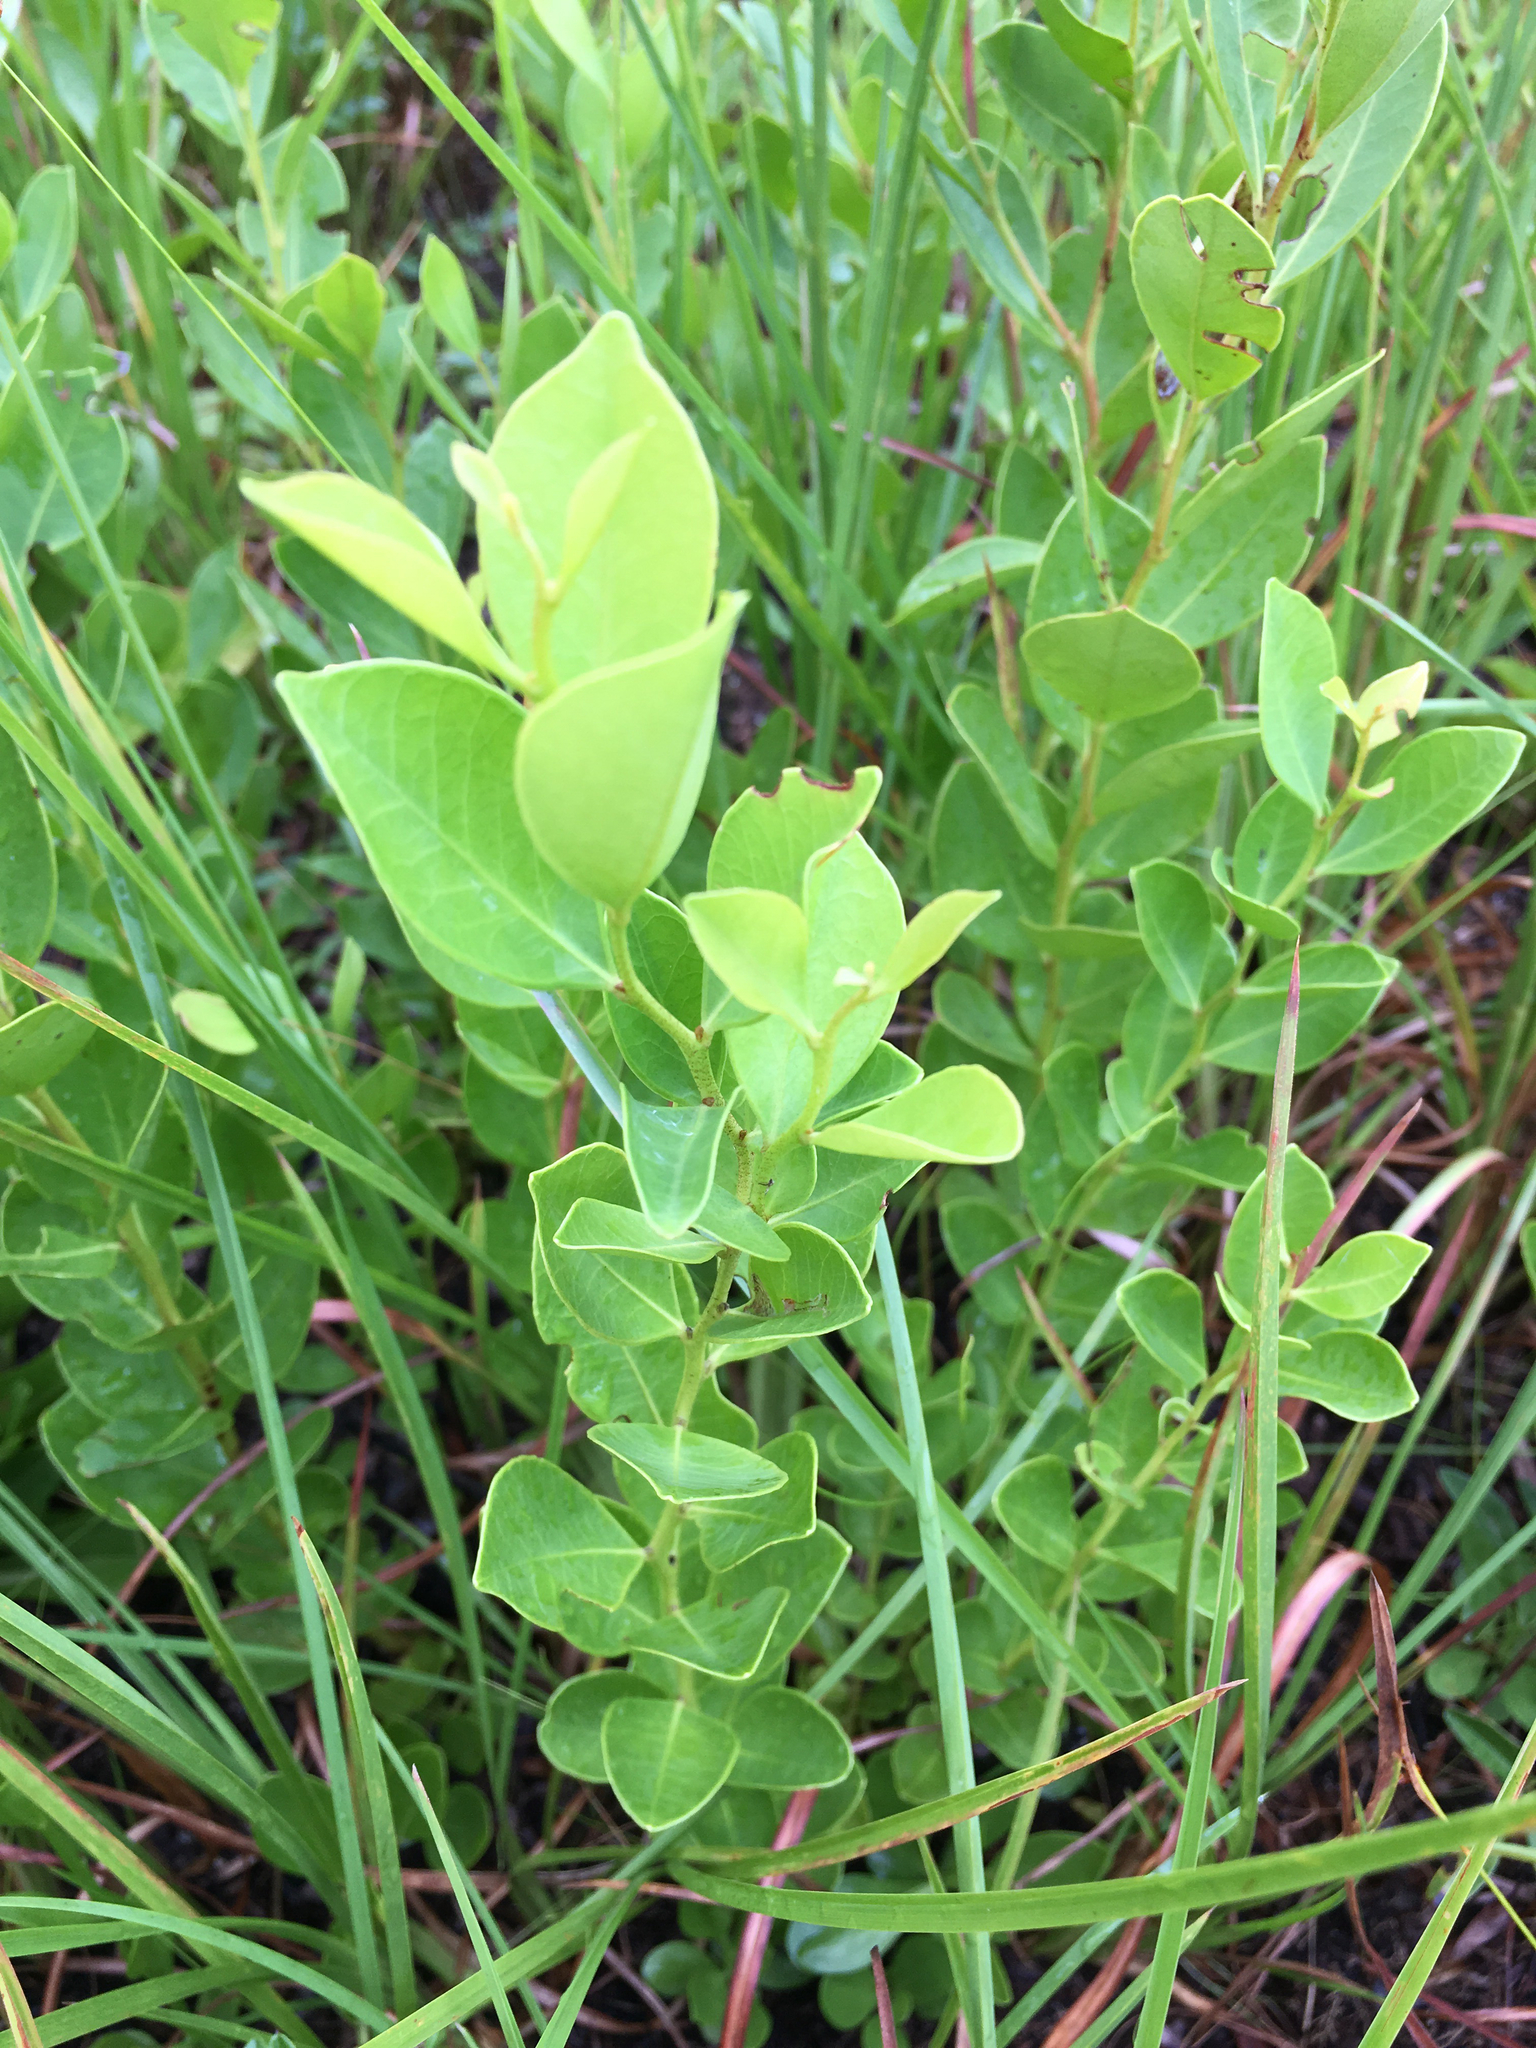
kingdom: Plantae
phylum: Tracheophyta
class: Magnoliopsida
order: Ericales
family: Ericaceae
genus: Lyonia
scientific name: Lyonia lucida
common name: Fetterbush
